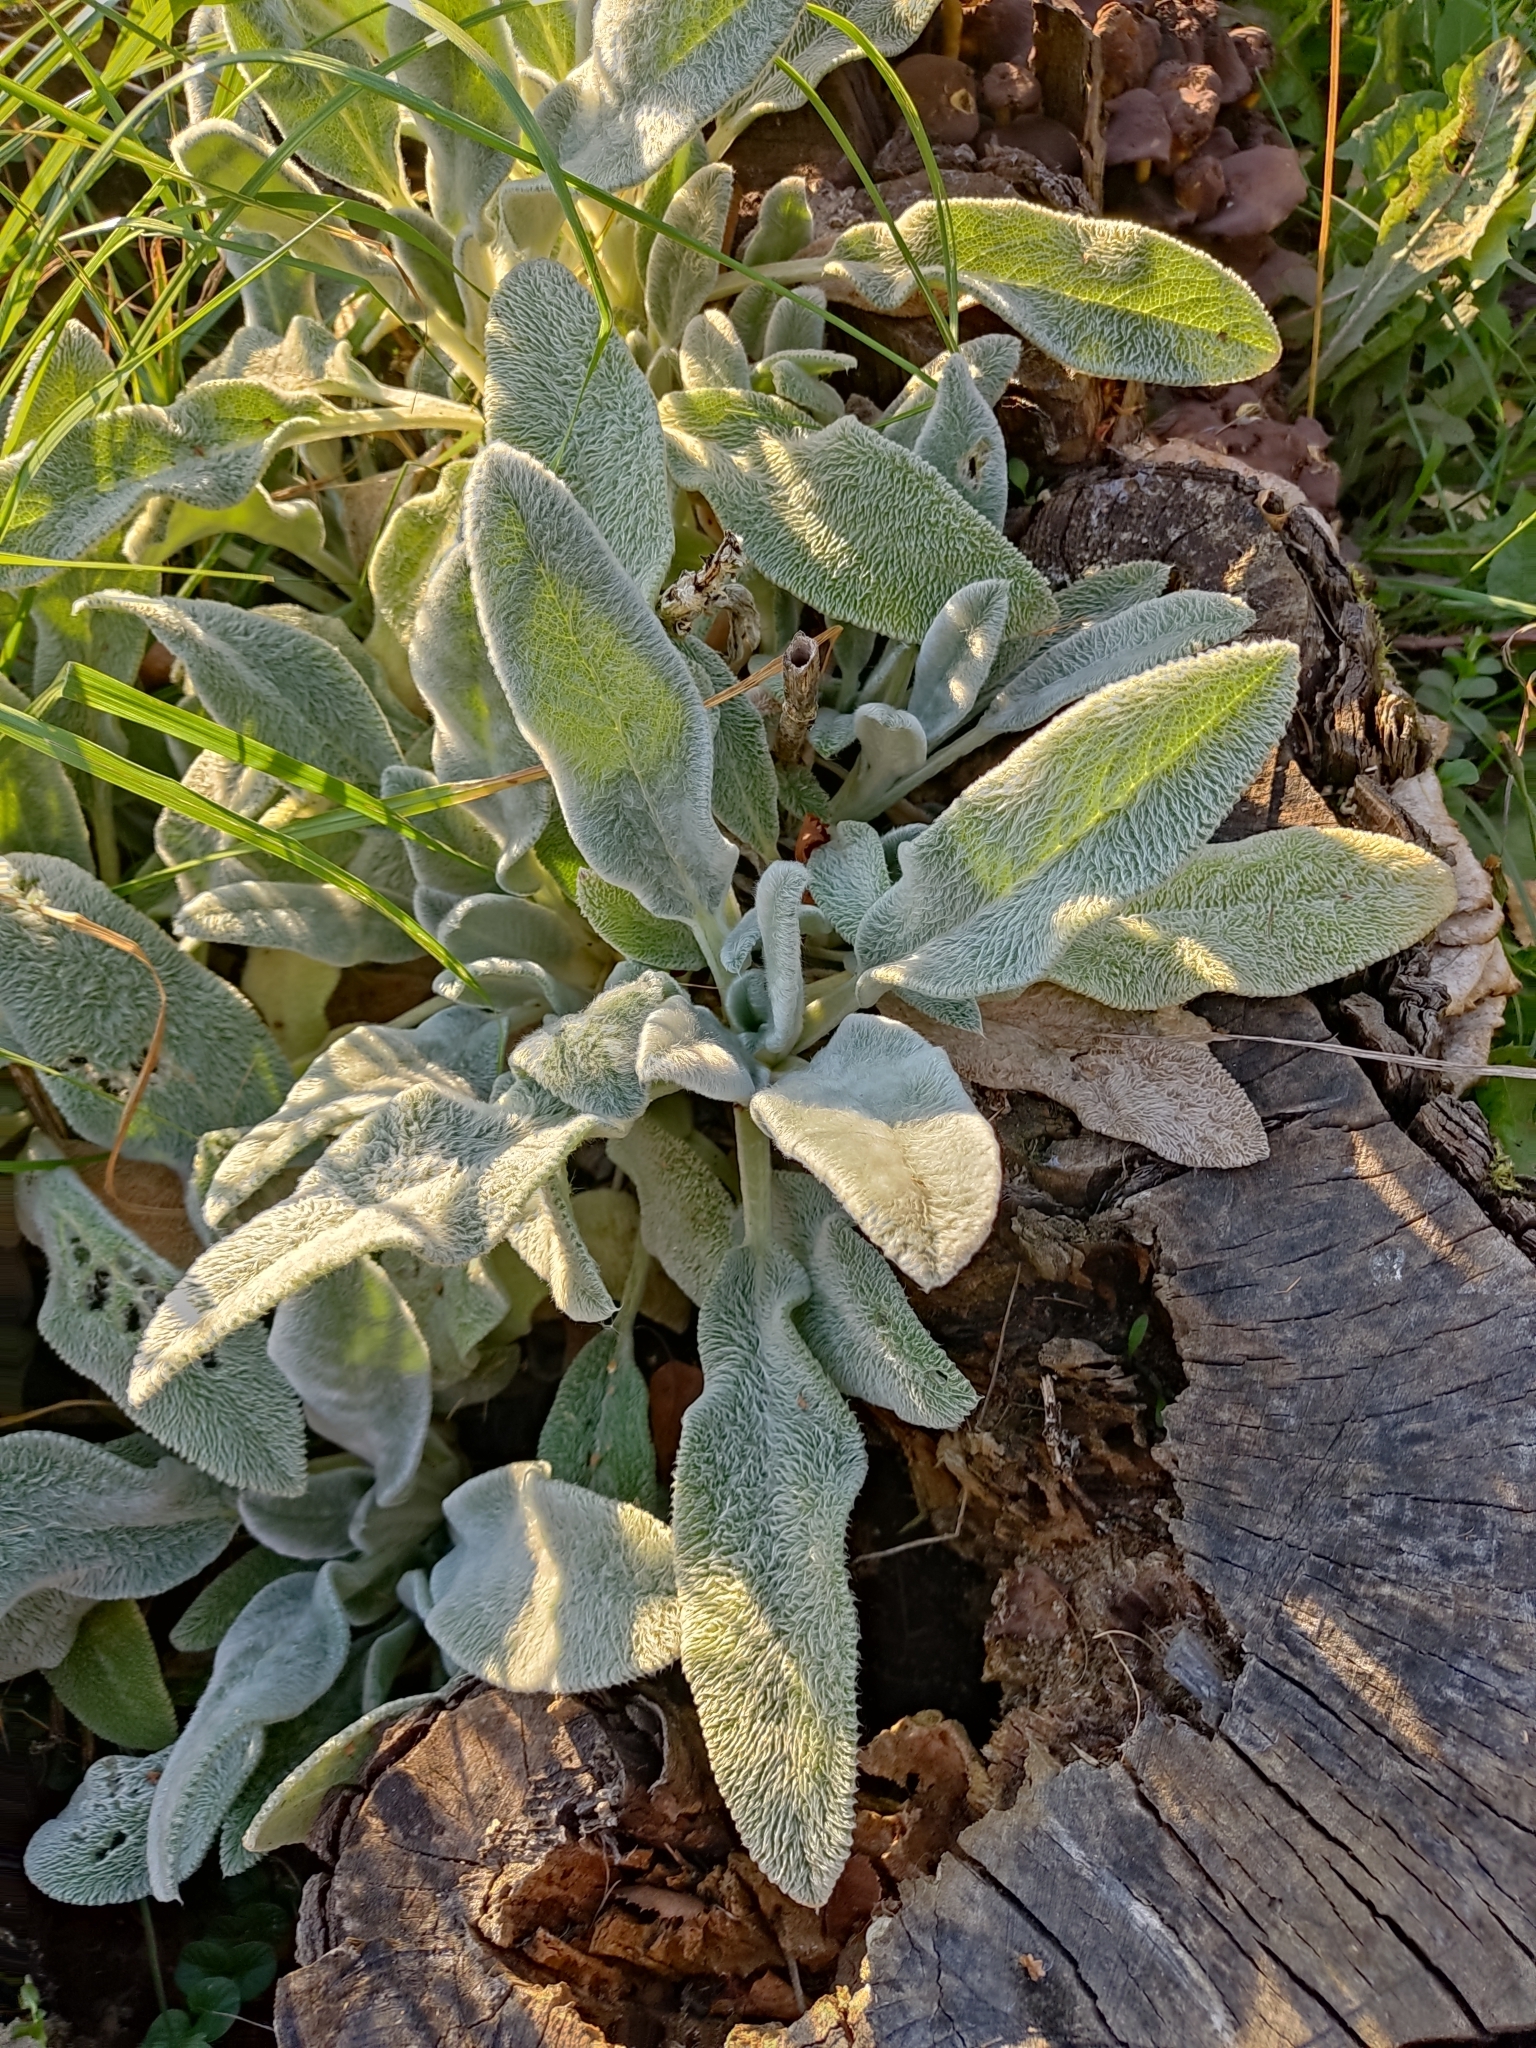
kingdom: Plantae
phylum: Tracheophyta
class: Magnoliopsida
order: Lamiales
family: Lamiaceae
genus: Stachys
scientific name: Stachys byzantina
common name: Lamb's-ear
